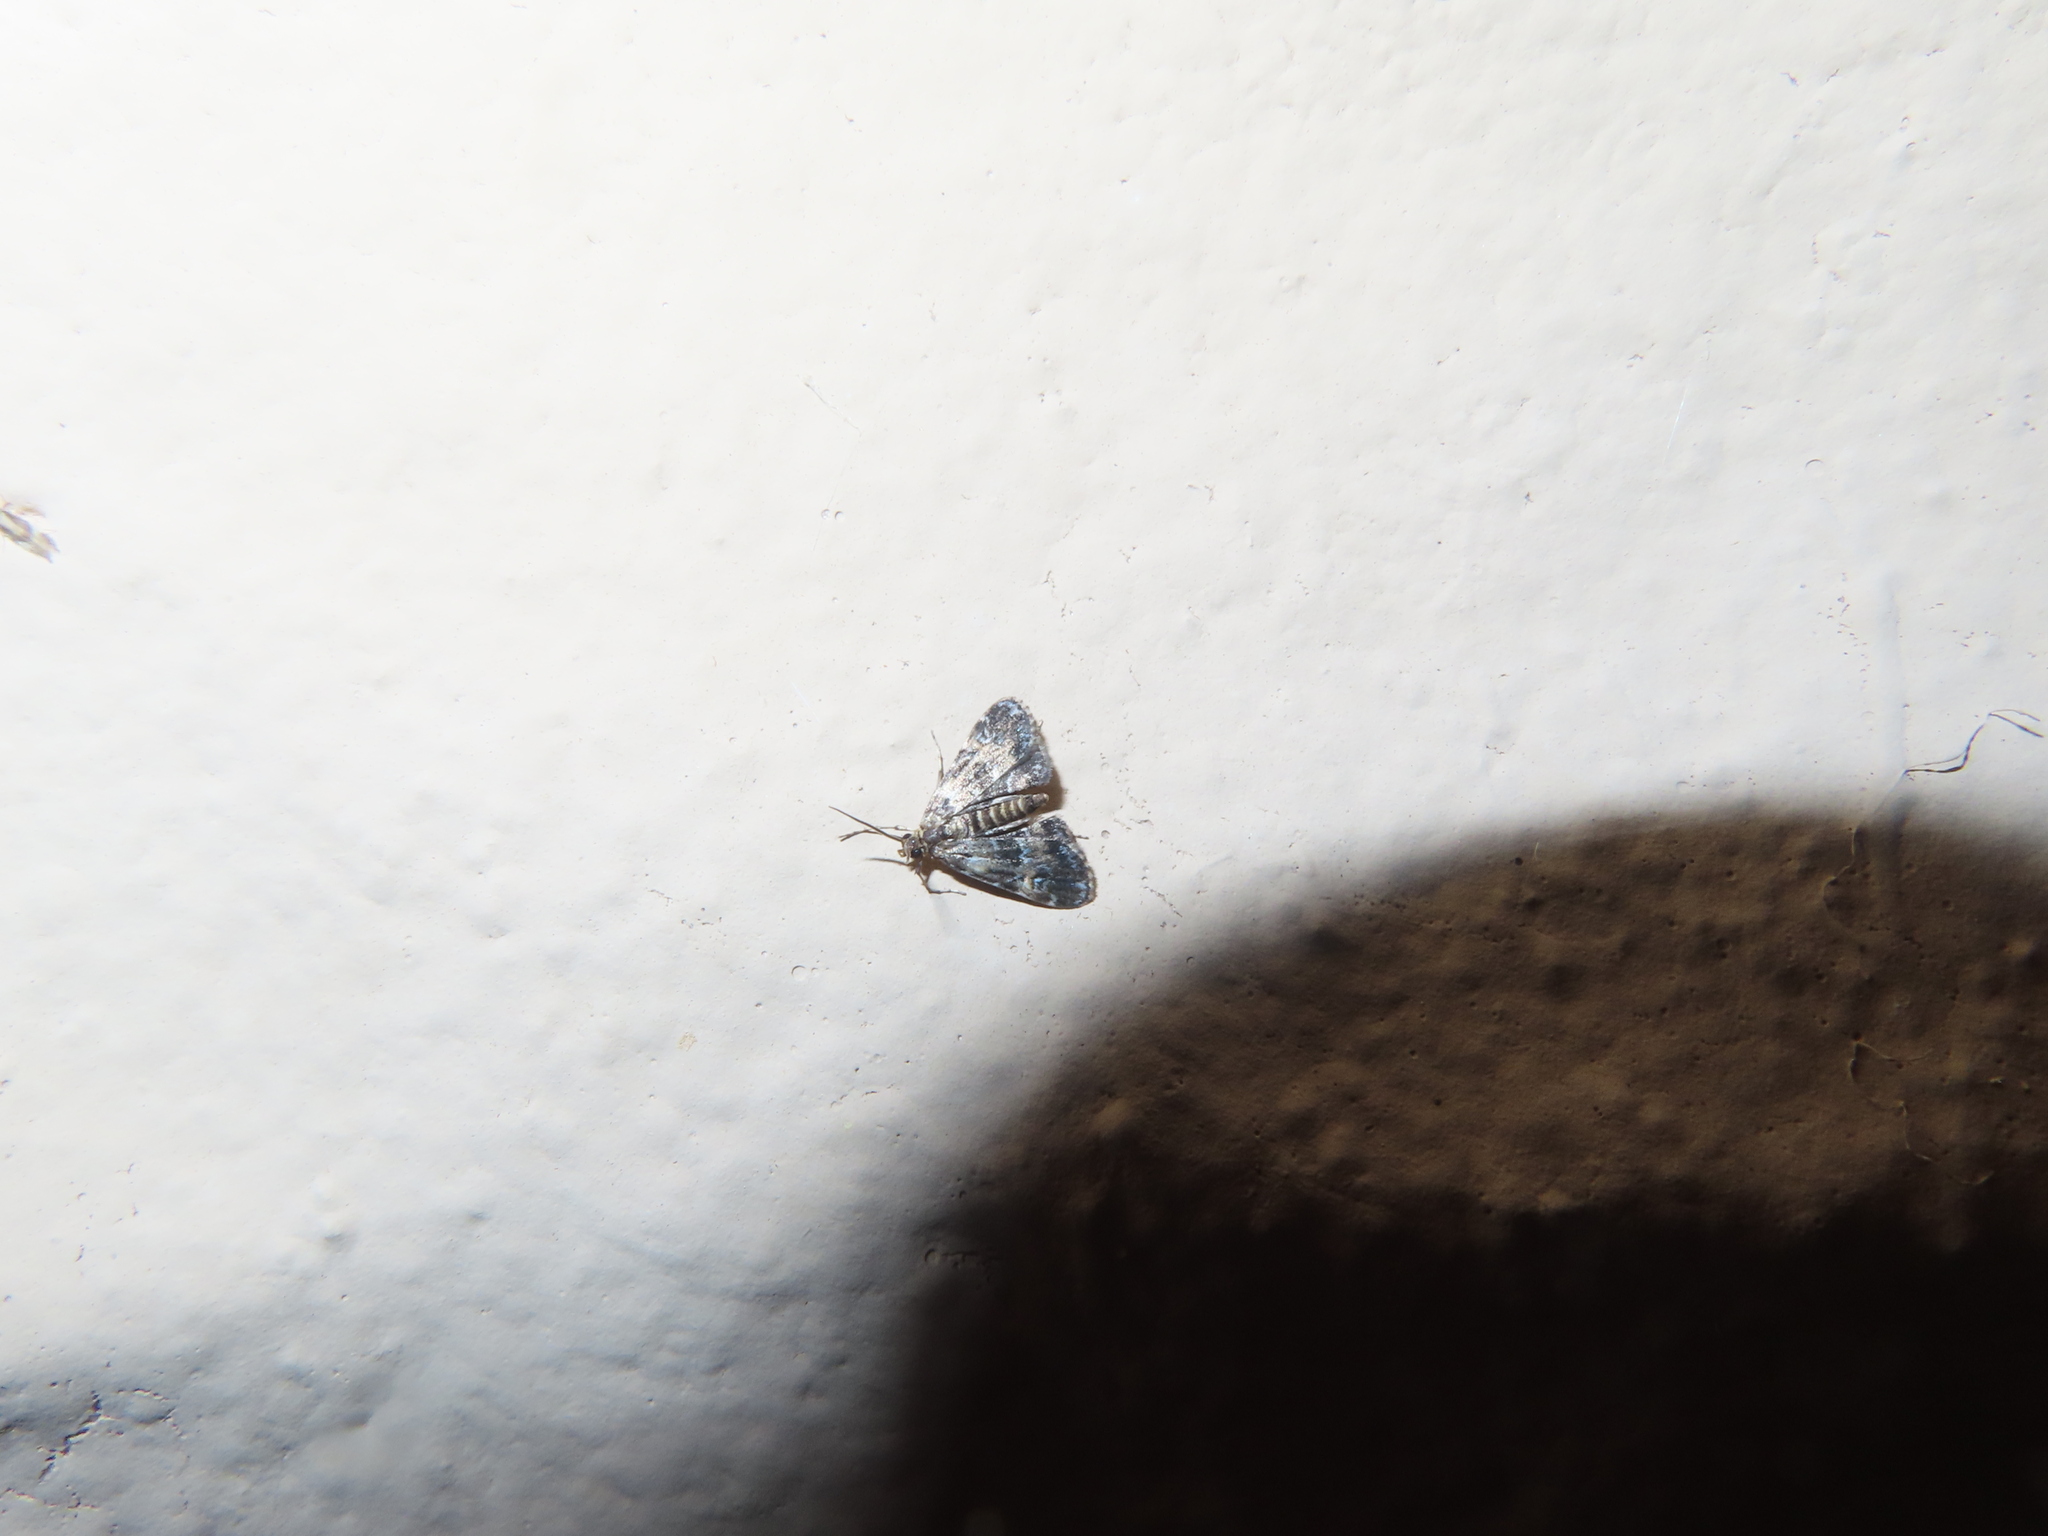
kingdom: Animalia
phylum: Arthropoda
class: Insecta
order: Lepidoptera
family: Crambidae
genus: Elophila
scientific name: Elophila obliteralis
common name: Waterlily leafcutter moth
